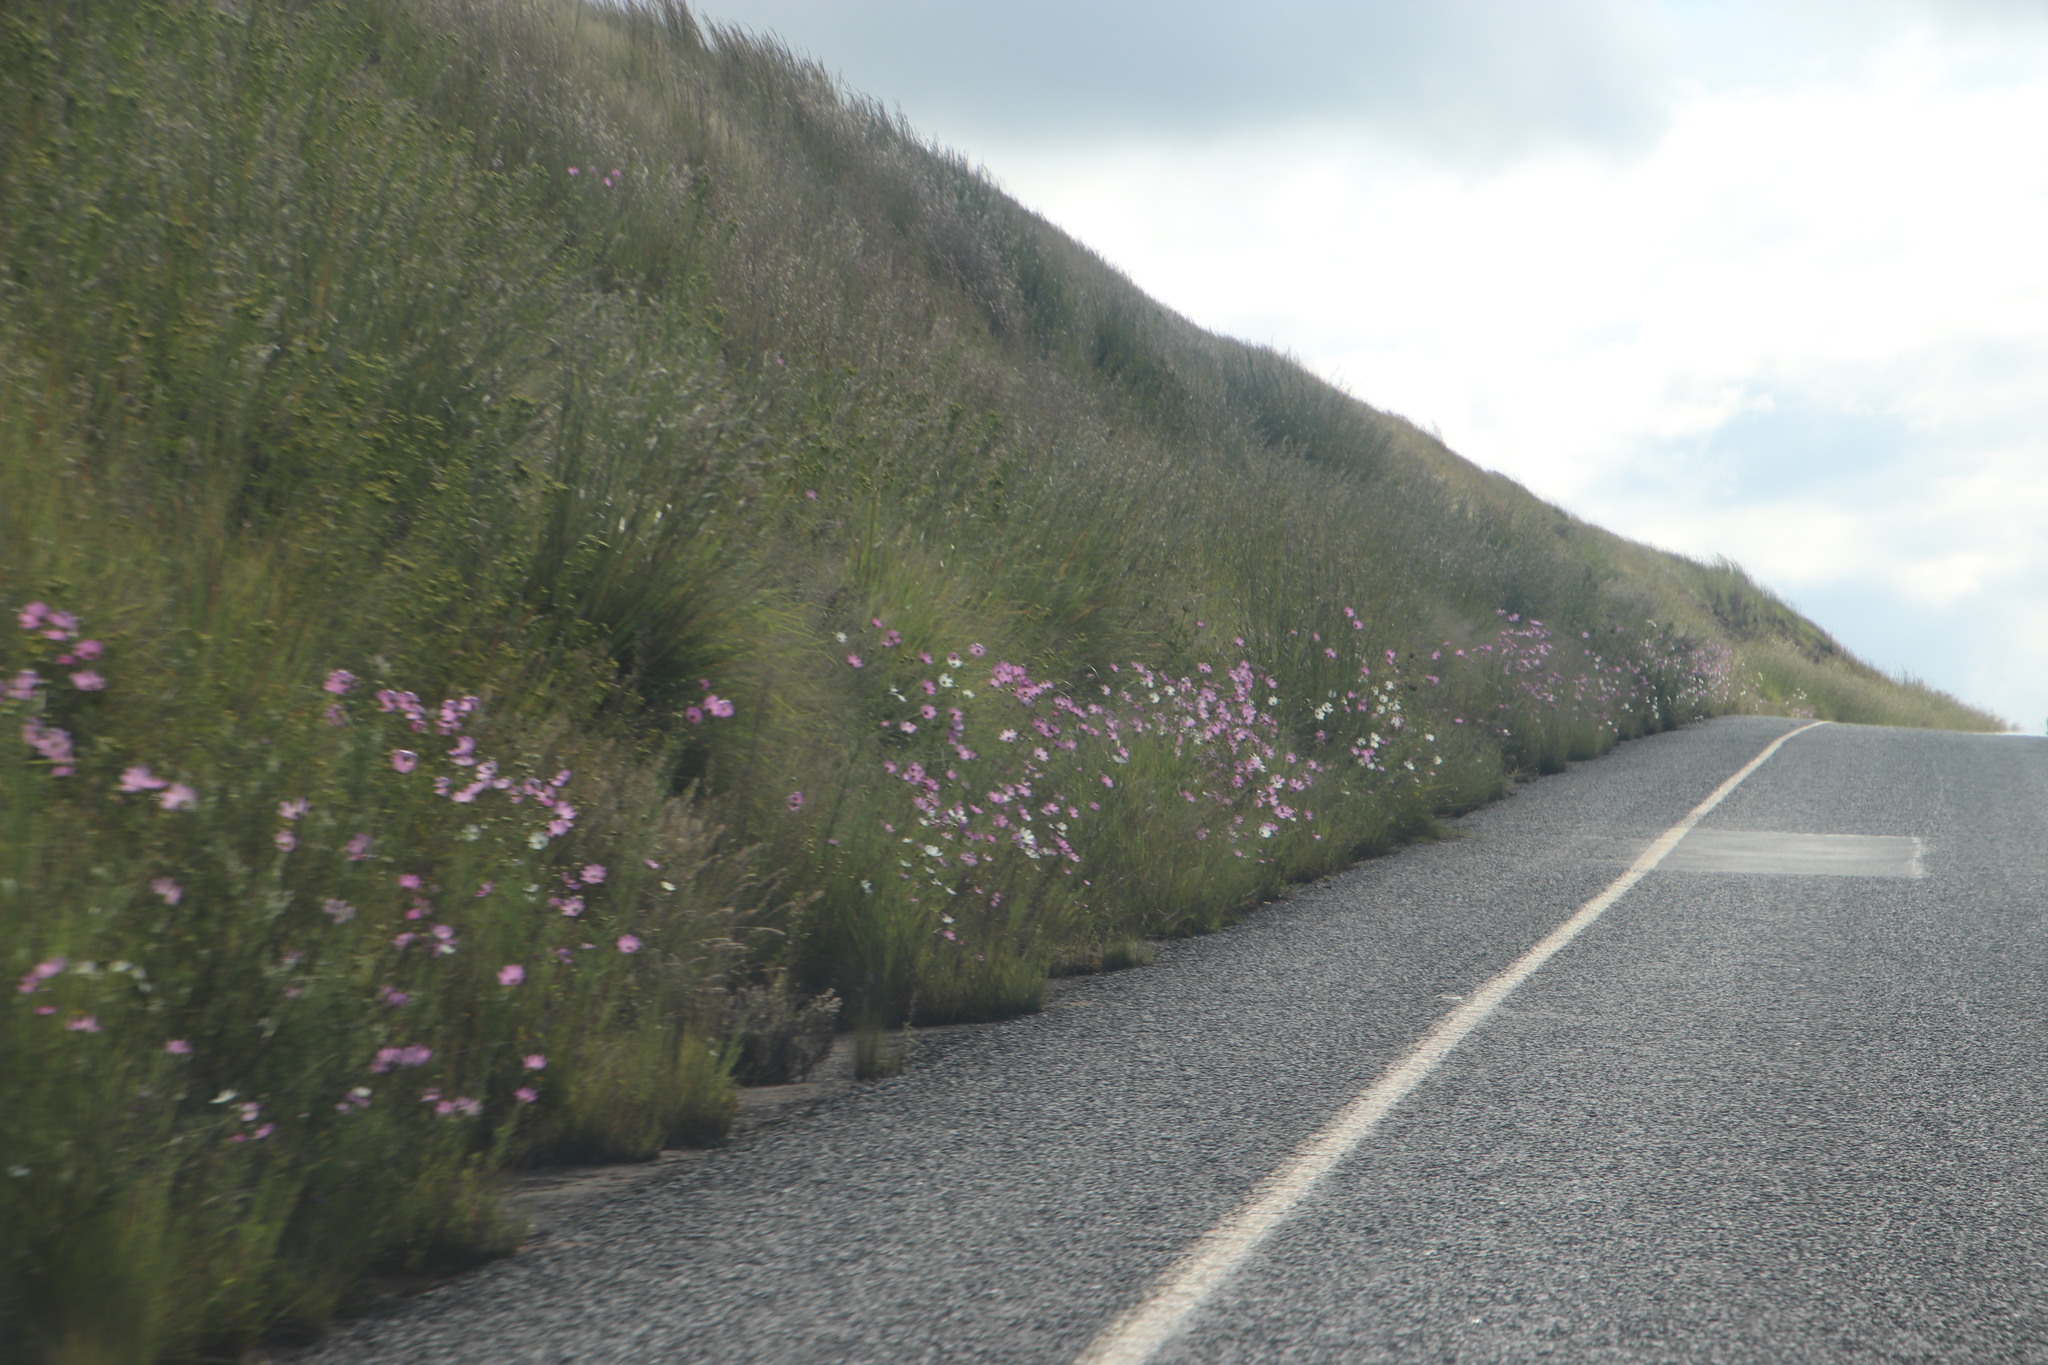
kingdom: Plantae
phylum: Tracheophyta
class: Magnoliopsida
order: Asterales
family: Asteraceae
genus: Cosmos
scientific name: Cosmos bipinnatus
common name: Garden cosmos
